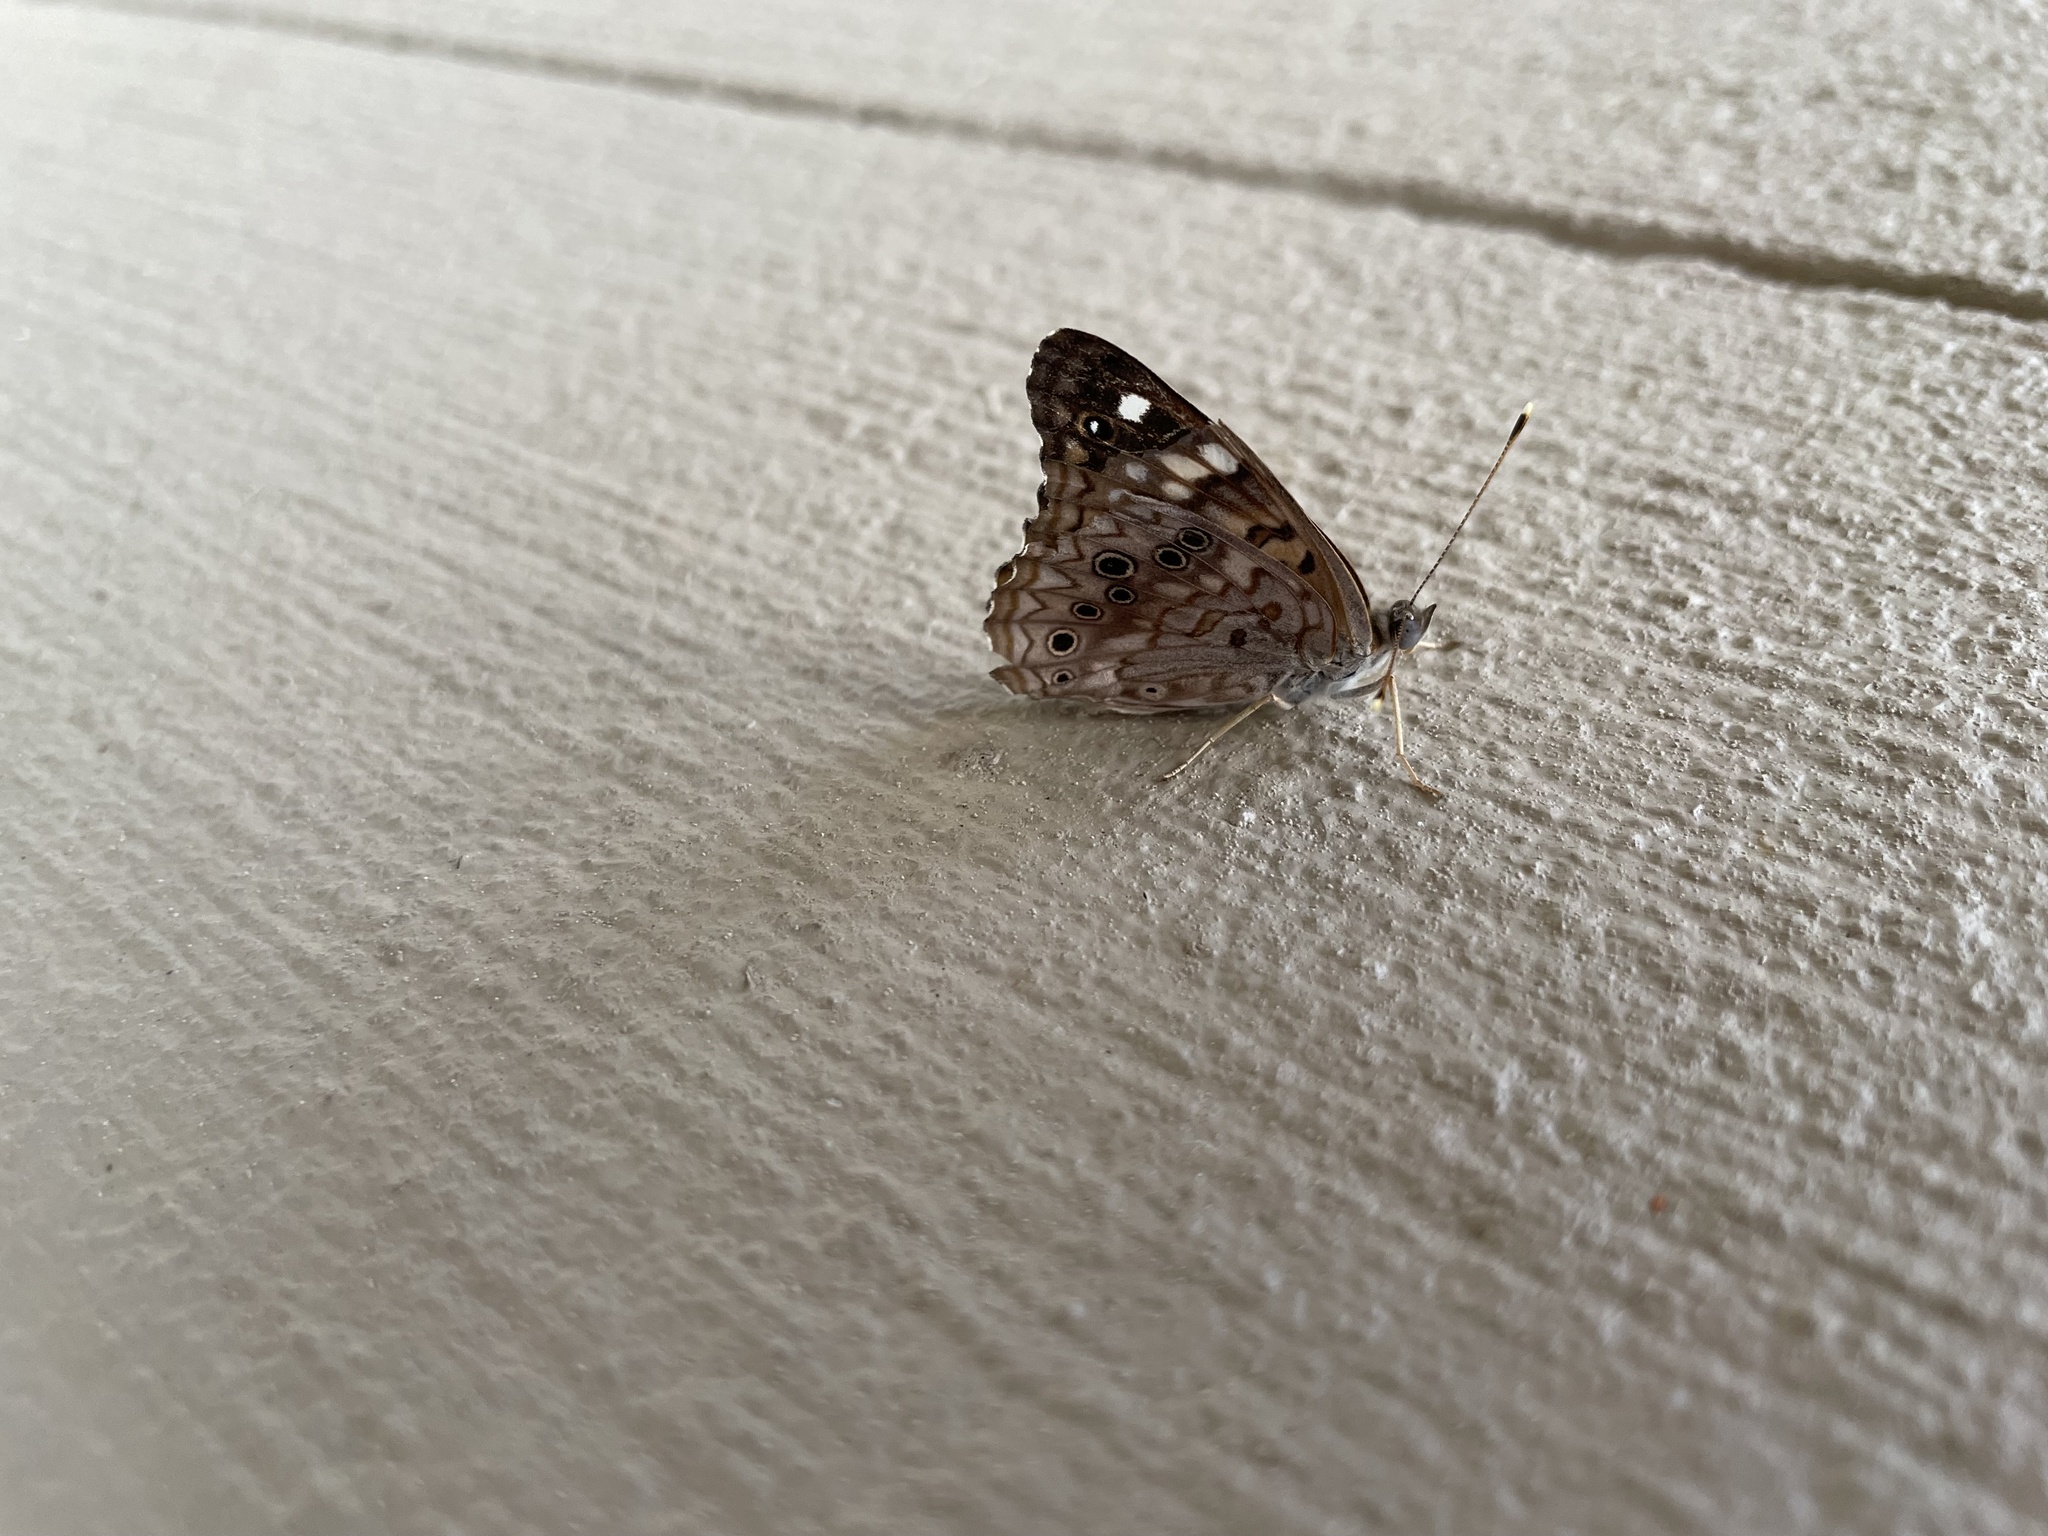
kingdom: Animalia
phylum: Arthropoda
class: Insecta
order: Lepidoptera
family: Nymphalidae
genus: Asterocampa
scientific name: Asterocampa celtis
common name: Hackberry emperor
